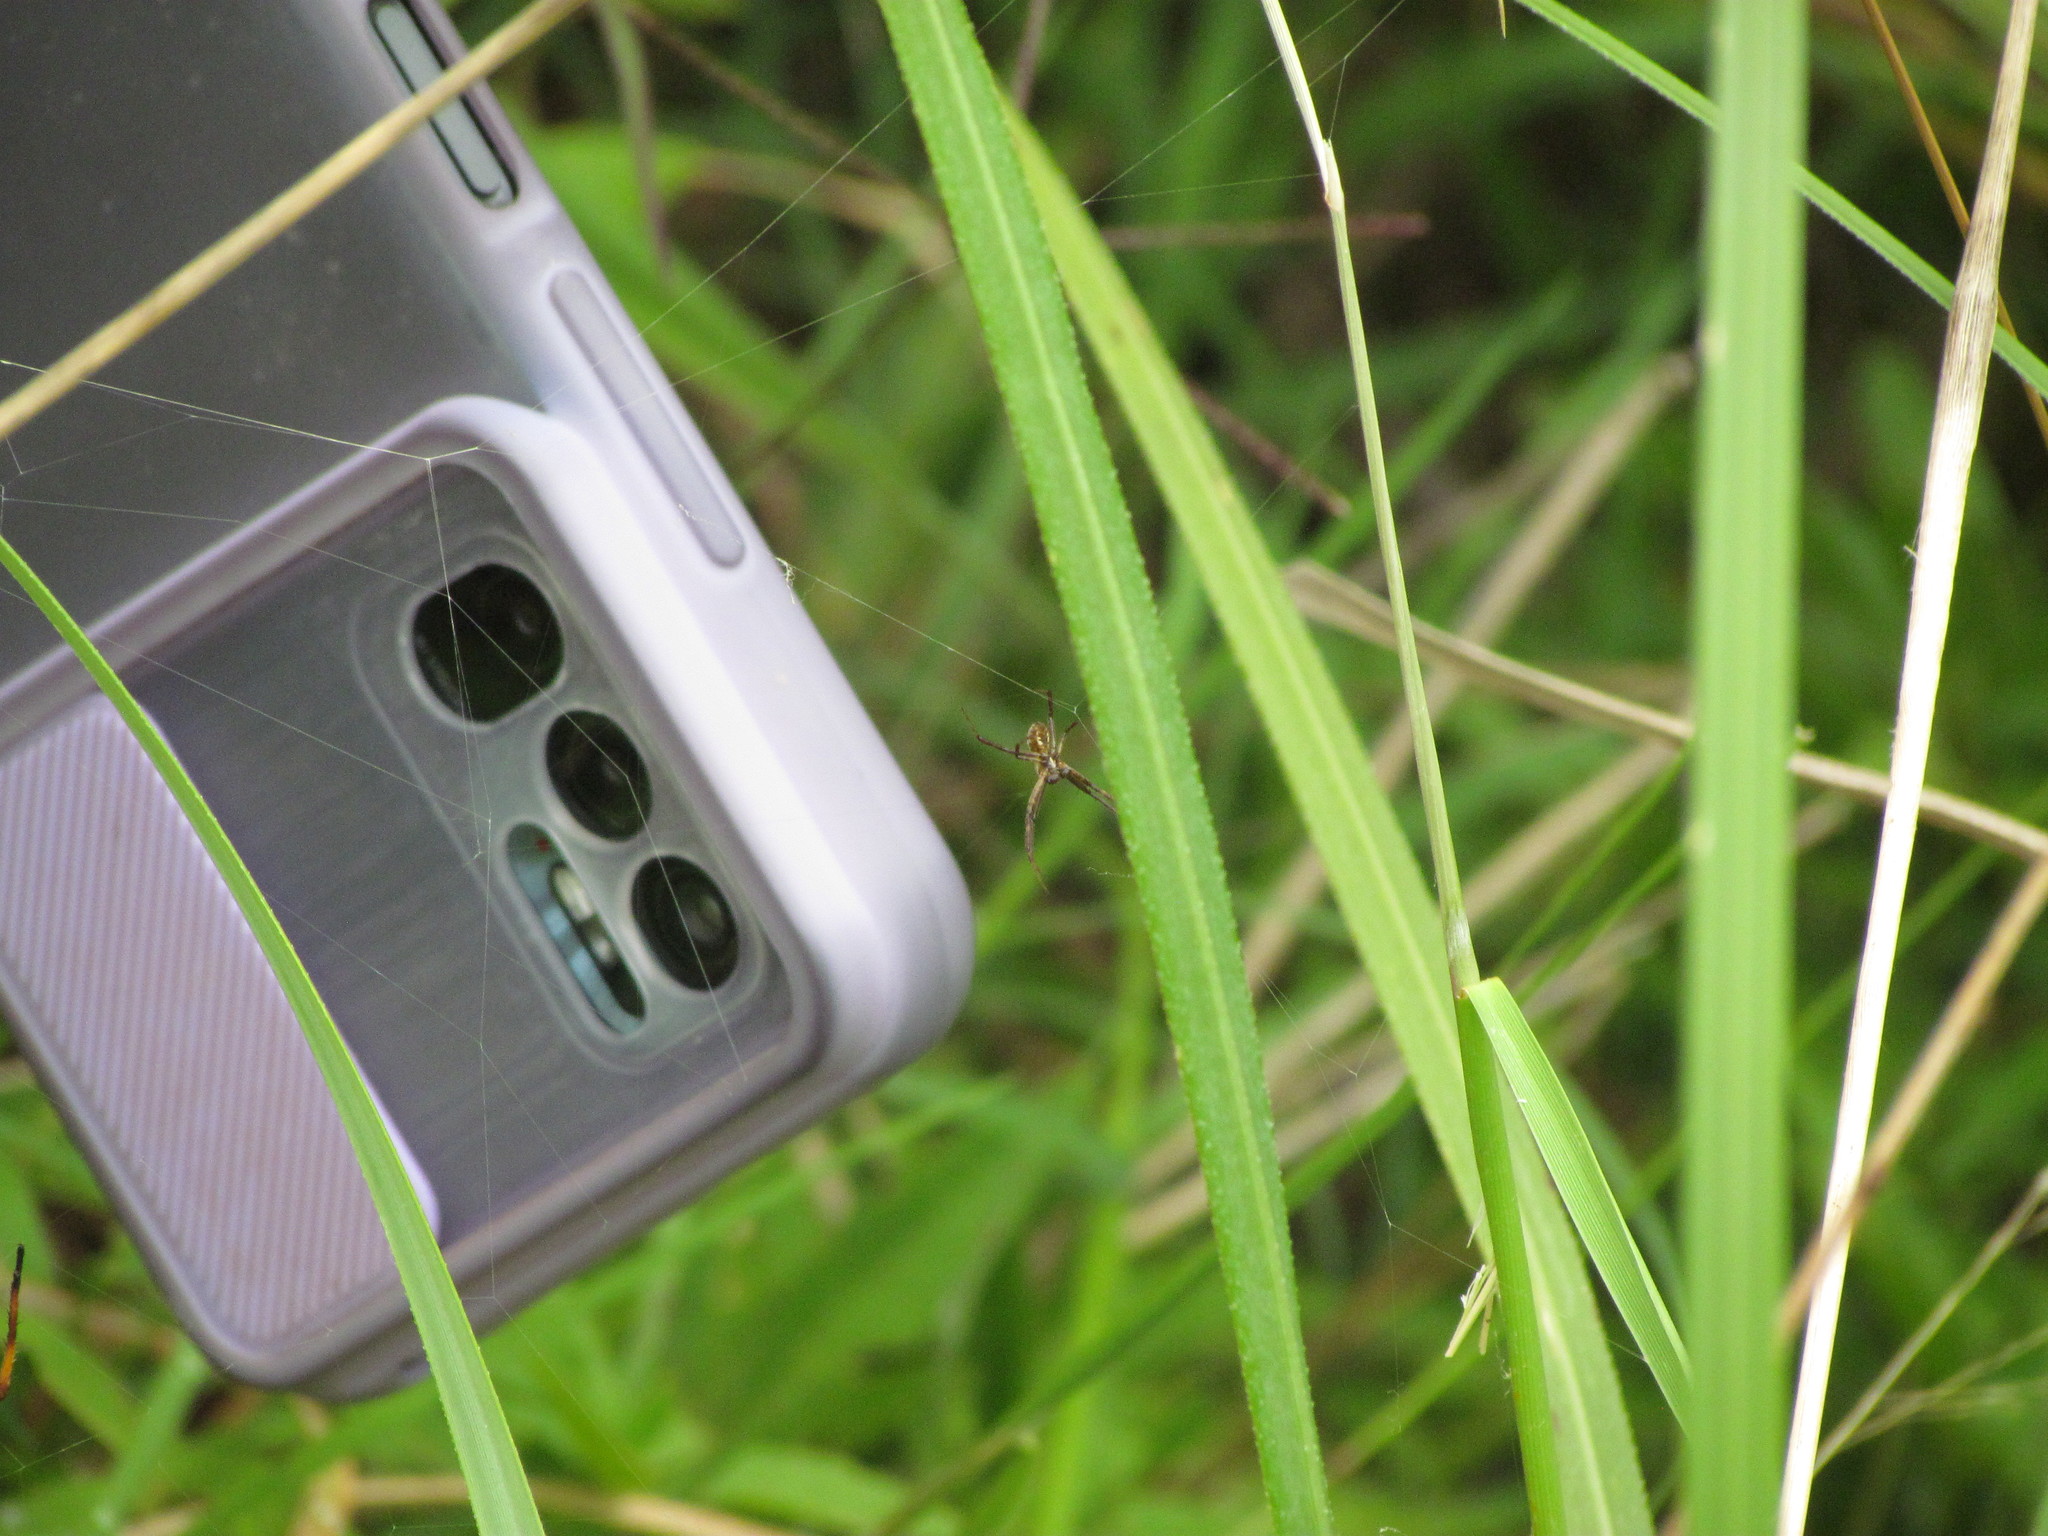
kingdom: Animalia
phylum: Arthropoda
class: Arachnida
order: Araneae
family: Araneidae
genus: Argiope
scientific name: Argiope argentata
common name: Orb weavers
